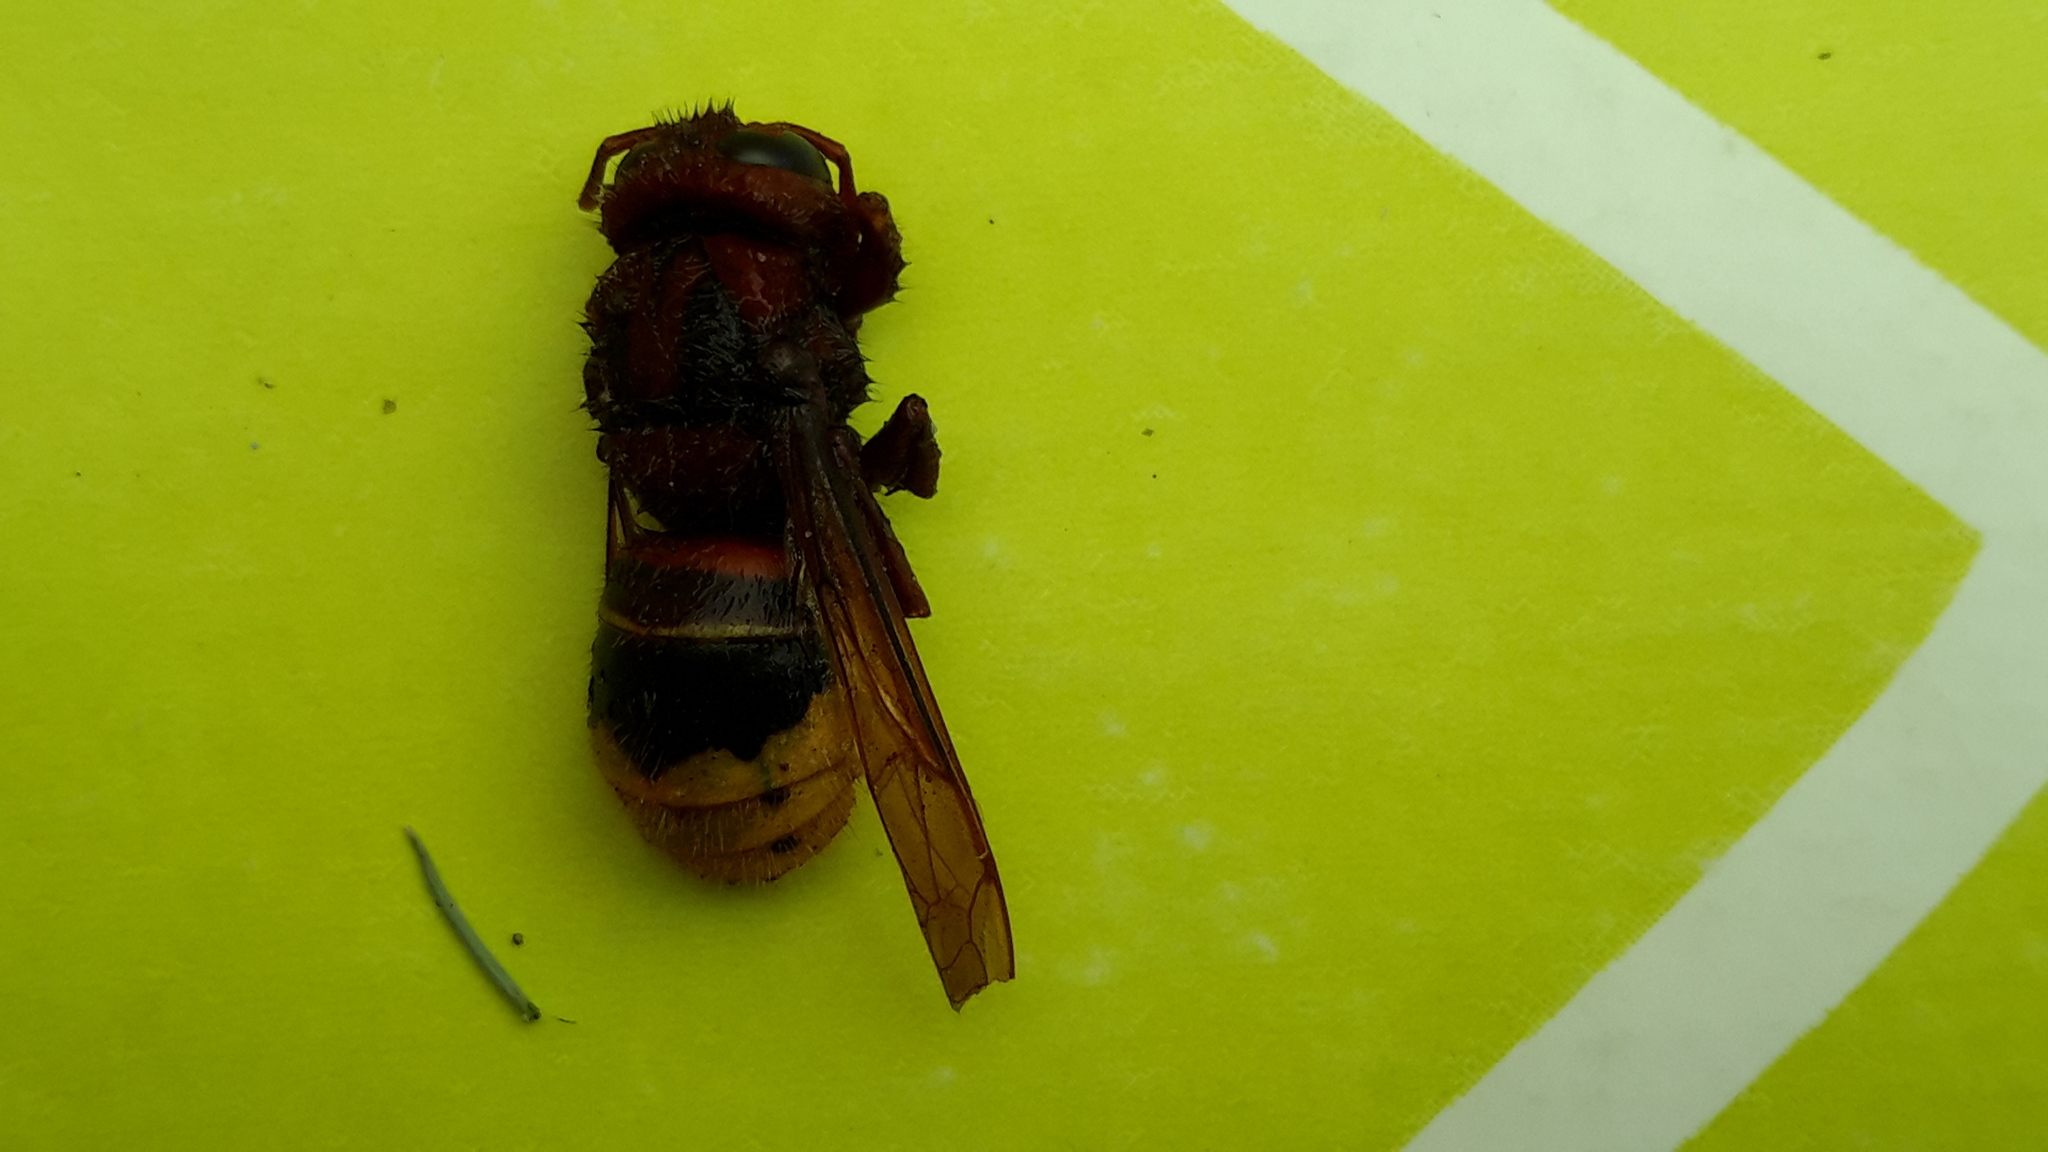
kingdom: Animalia
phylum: Arthropoda
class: Insecta
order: Hymenoptera
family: Vespidae
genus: Vespa
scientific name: Vespa crabro
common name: Hornet
